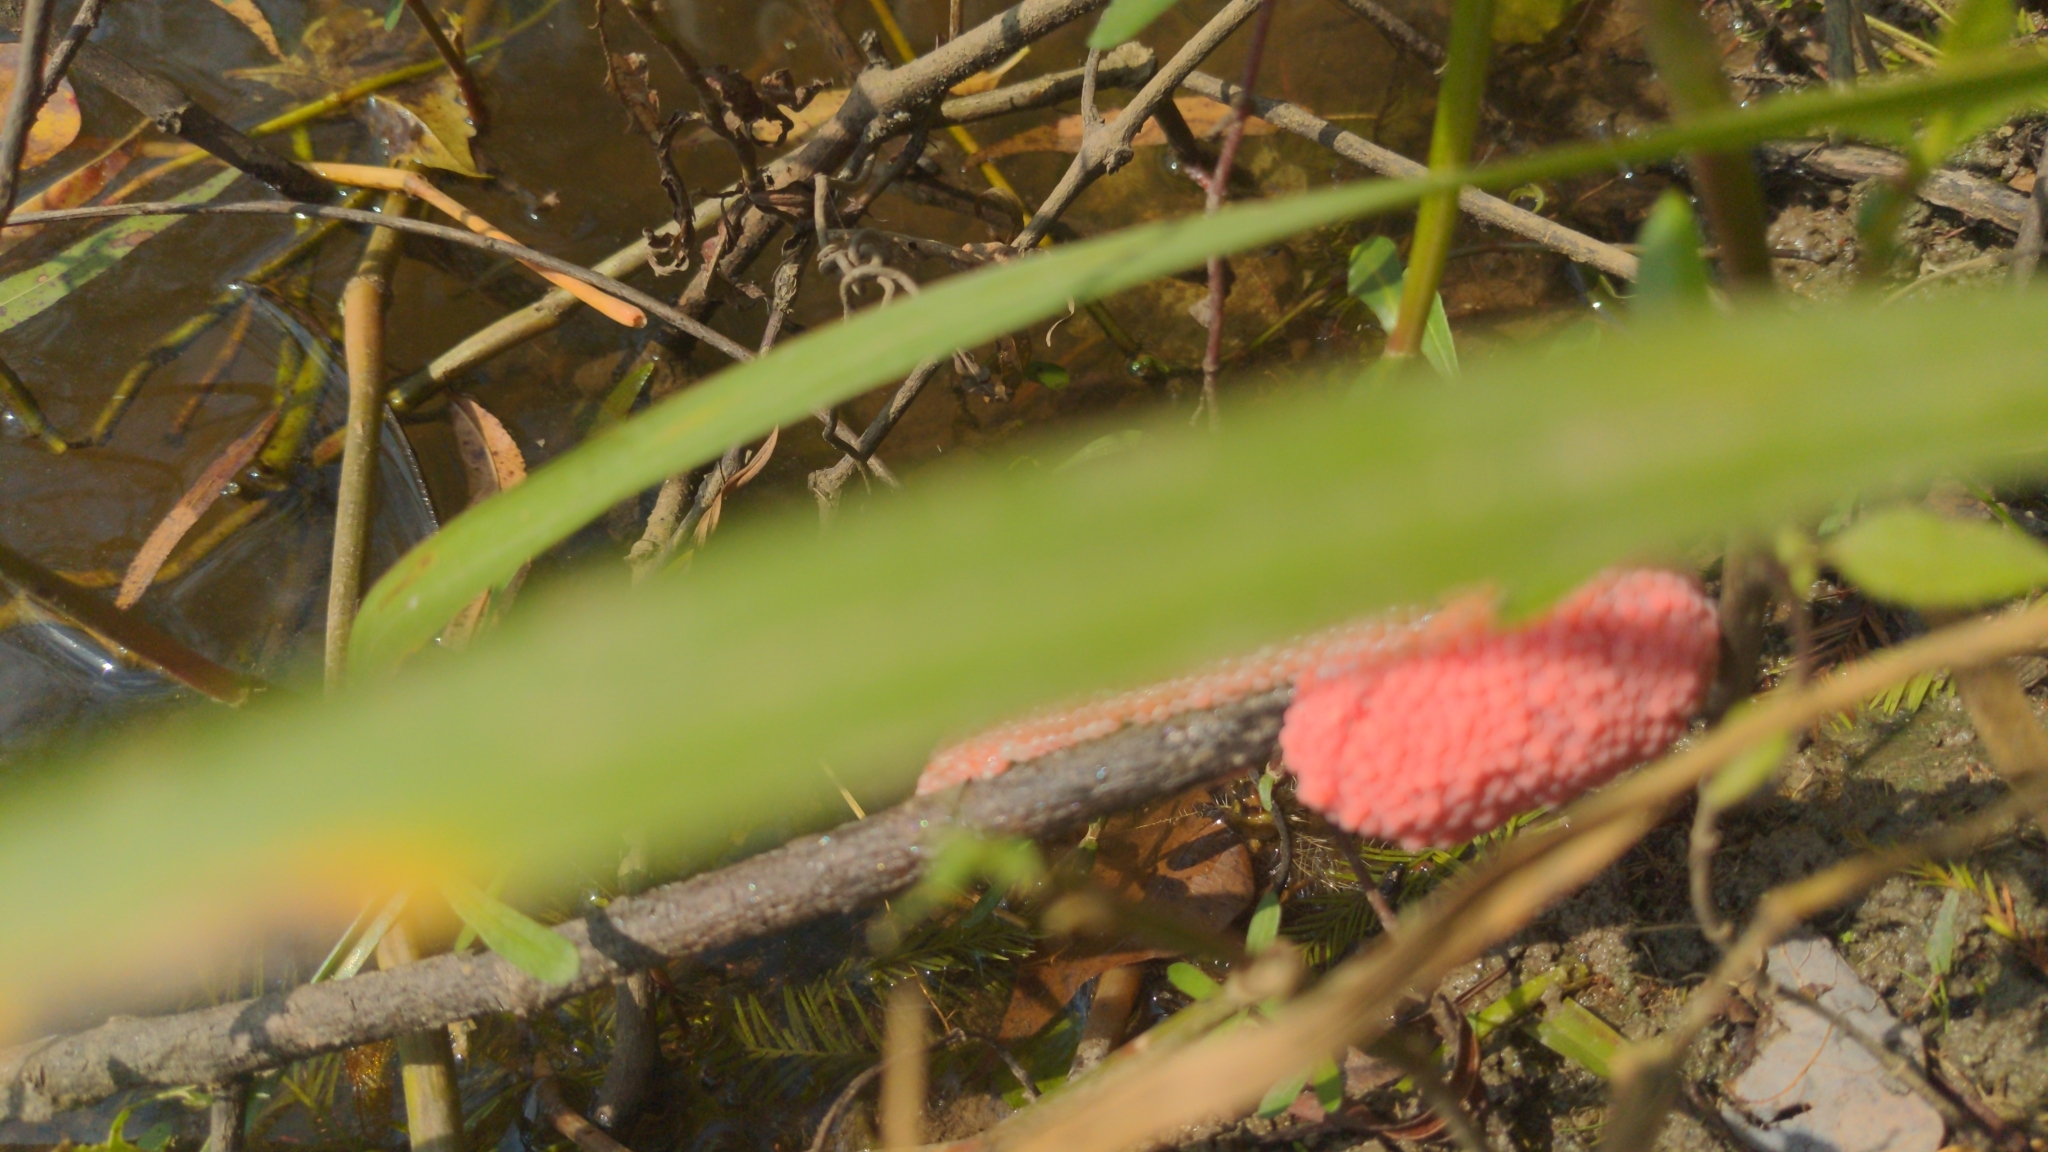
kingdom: Animalia
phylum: Mollusca
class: Gastropoda
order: Architaenioglossa
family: Ampullariidae
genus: Pomacea
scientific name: Pomacea maculata
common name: Giant applesnail
